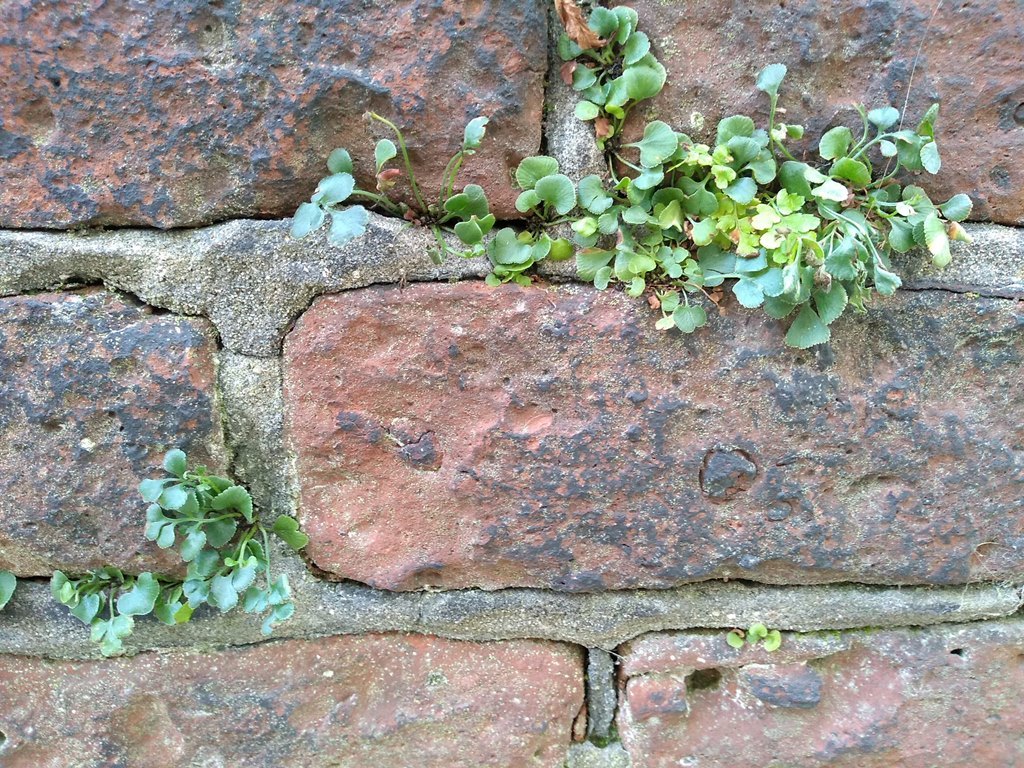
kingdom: Plantae
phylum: Tracheophyta
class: Polypodiopsida
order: Polypodiales
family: Aspleniaceae
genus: Asplenium
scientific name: Asplenium ruta-muraria
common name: Wall-rue
